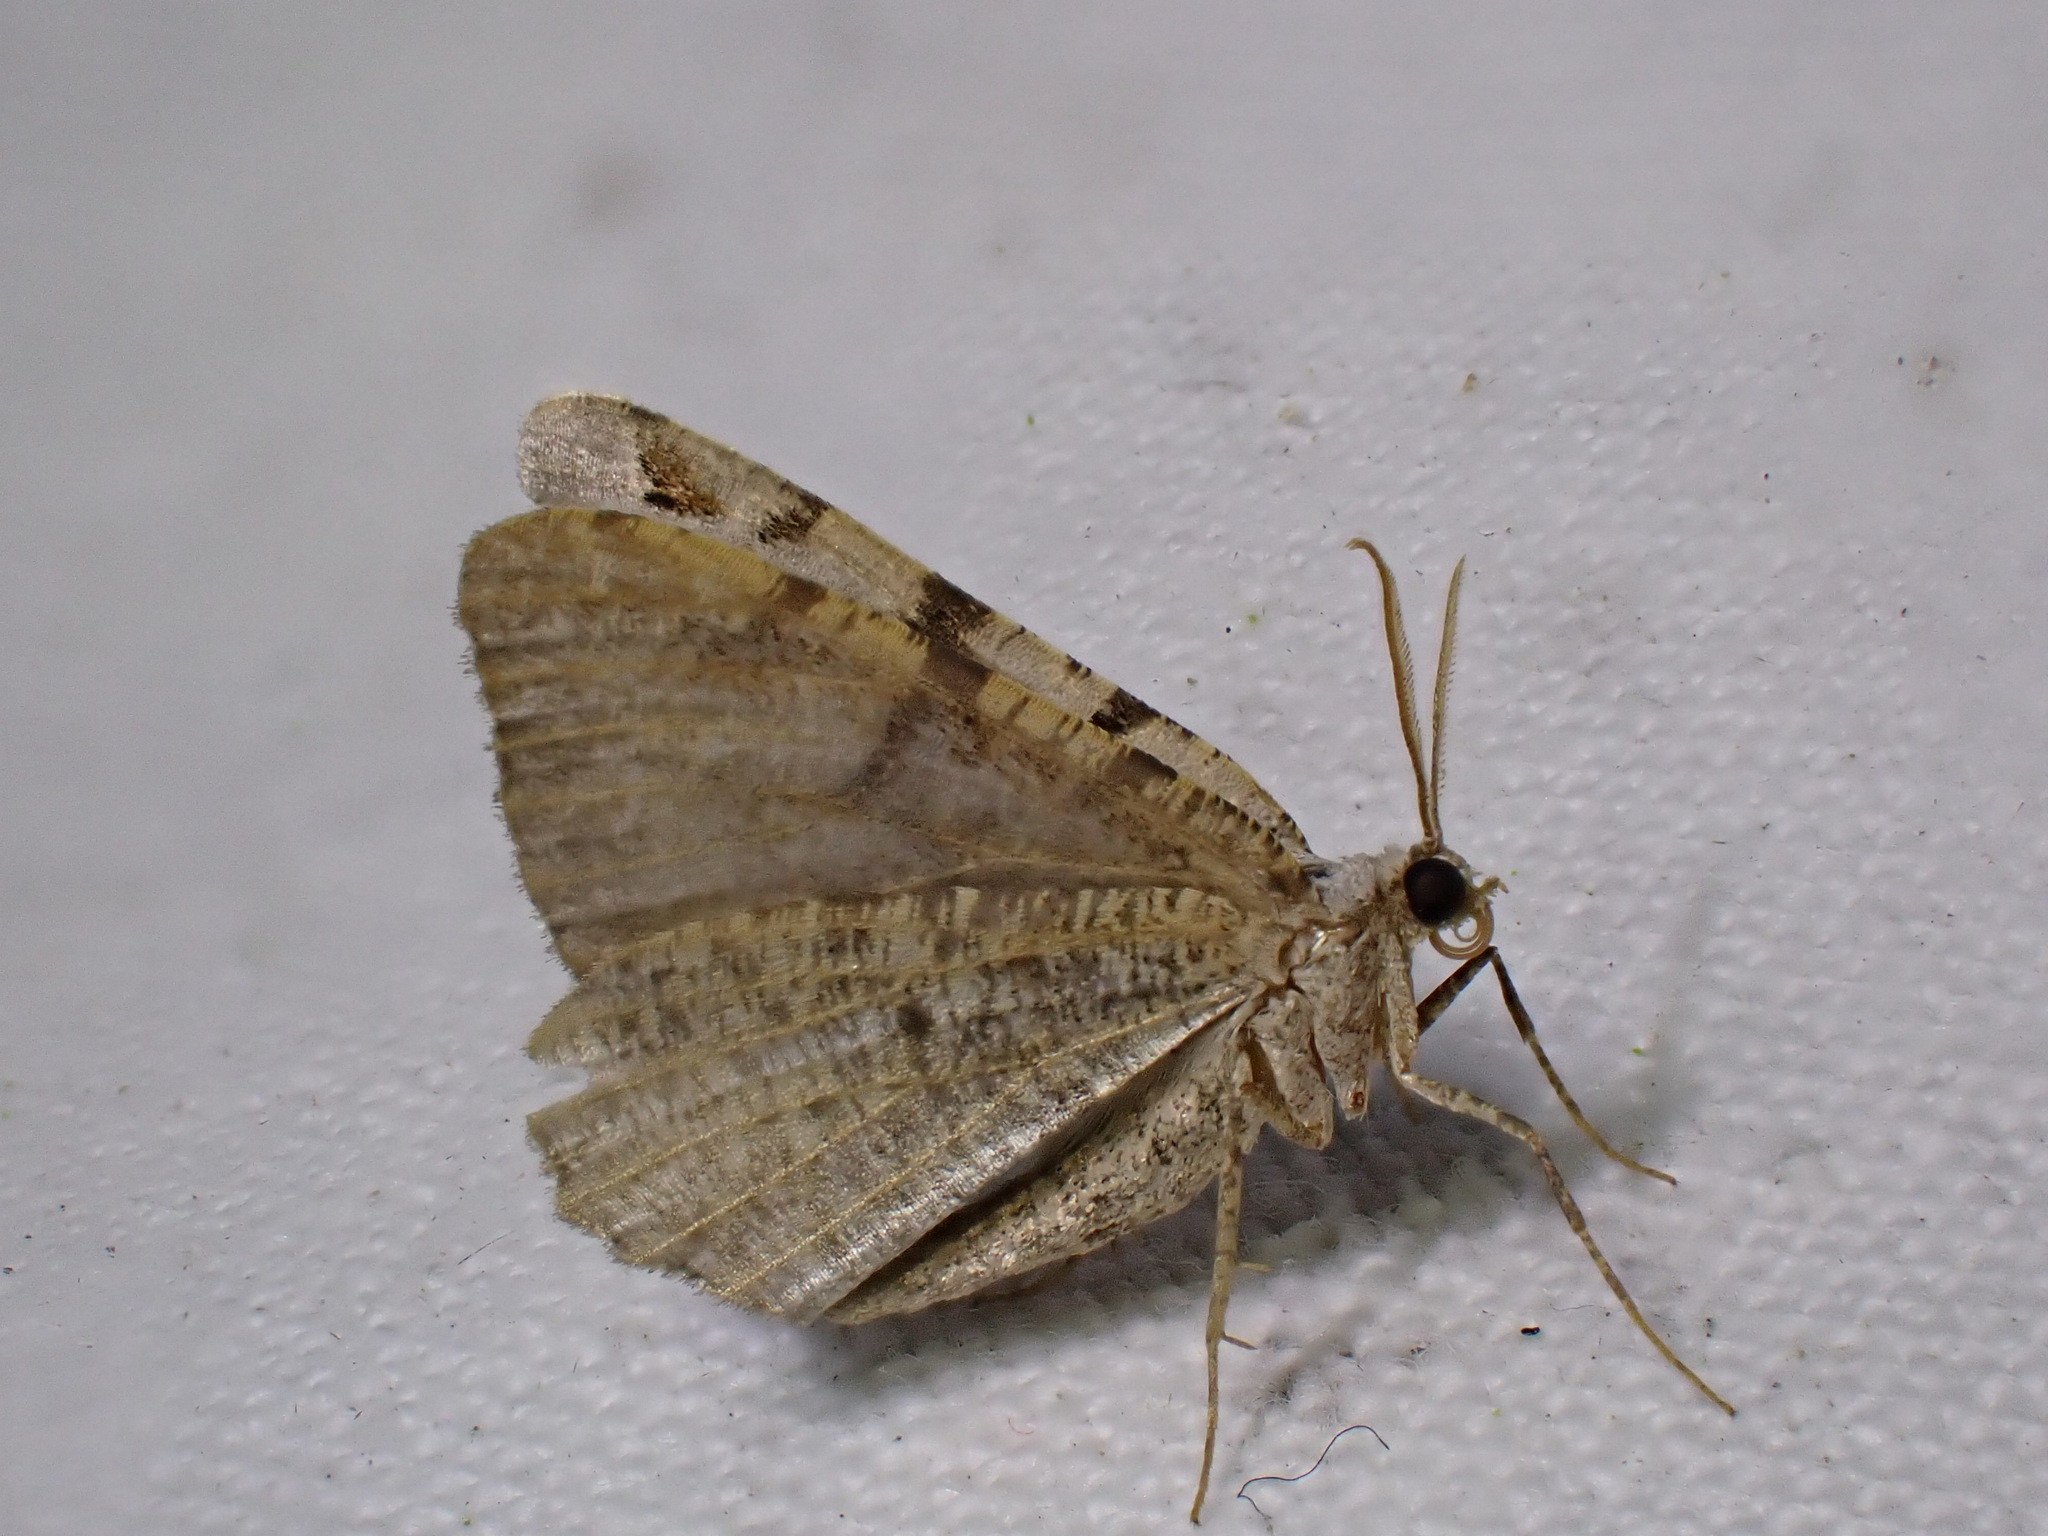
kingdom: Animalia
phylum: Arthropoda
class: Insecta
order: Lepidoptera
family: Geometridae
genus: Macaria
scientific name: Macaria wauaria
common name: V-moth
